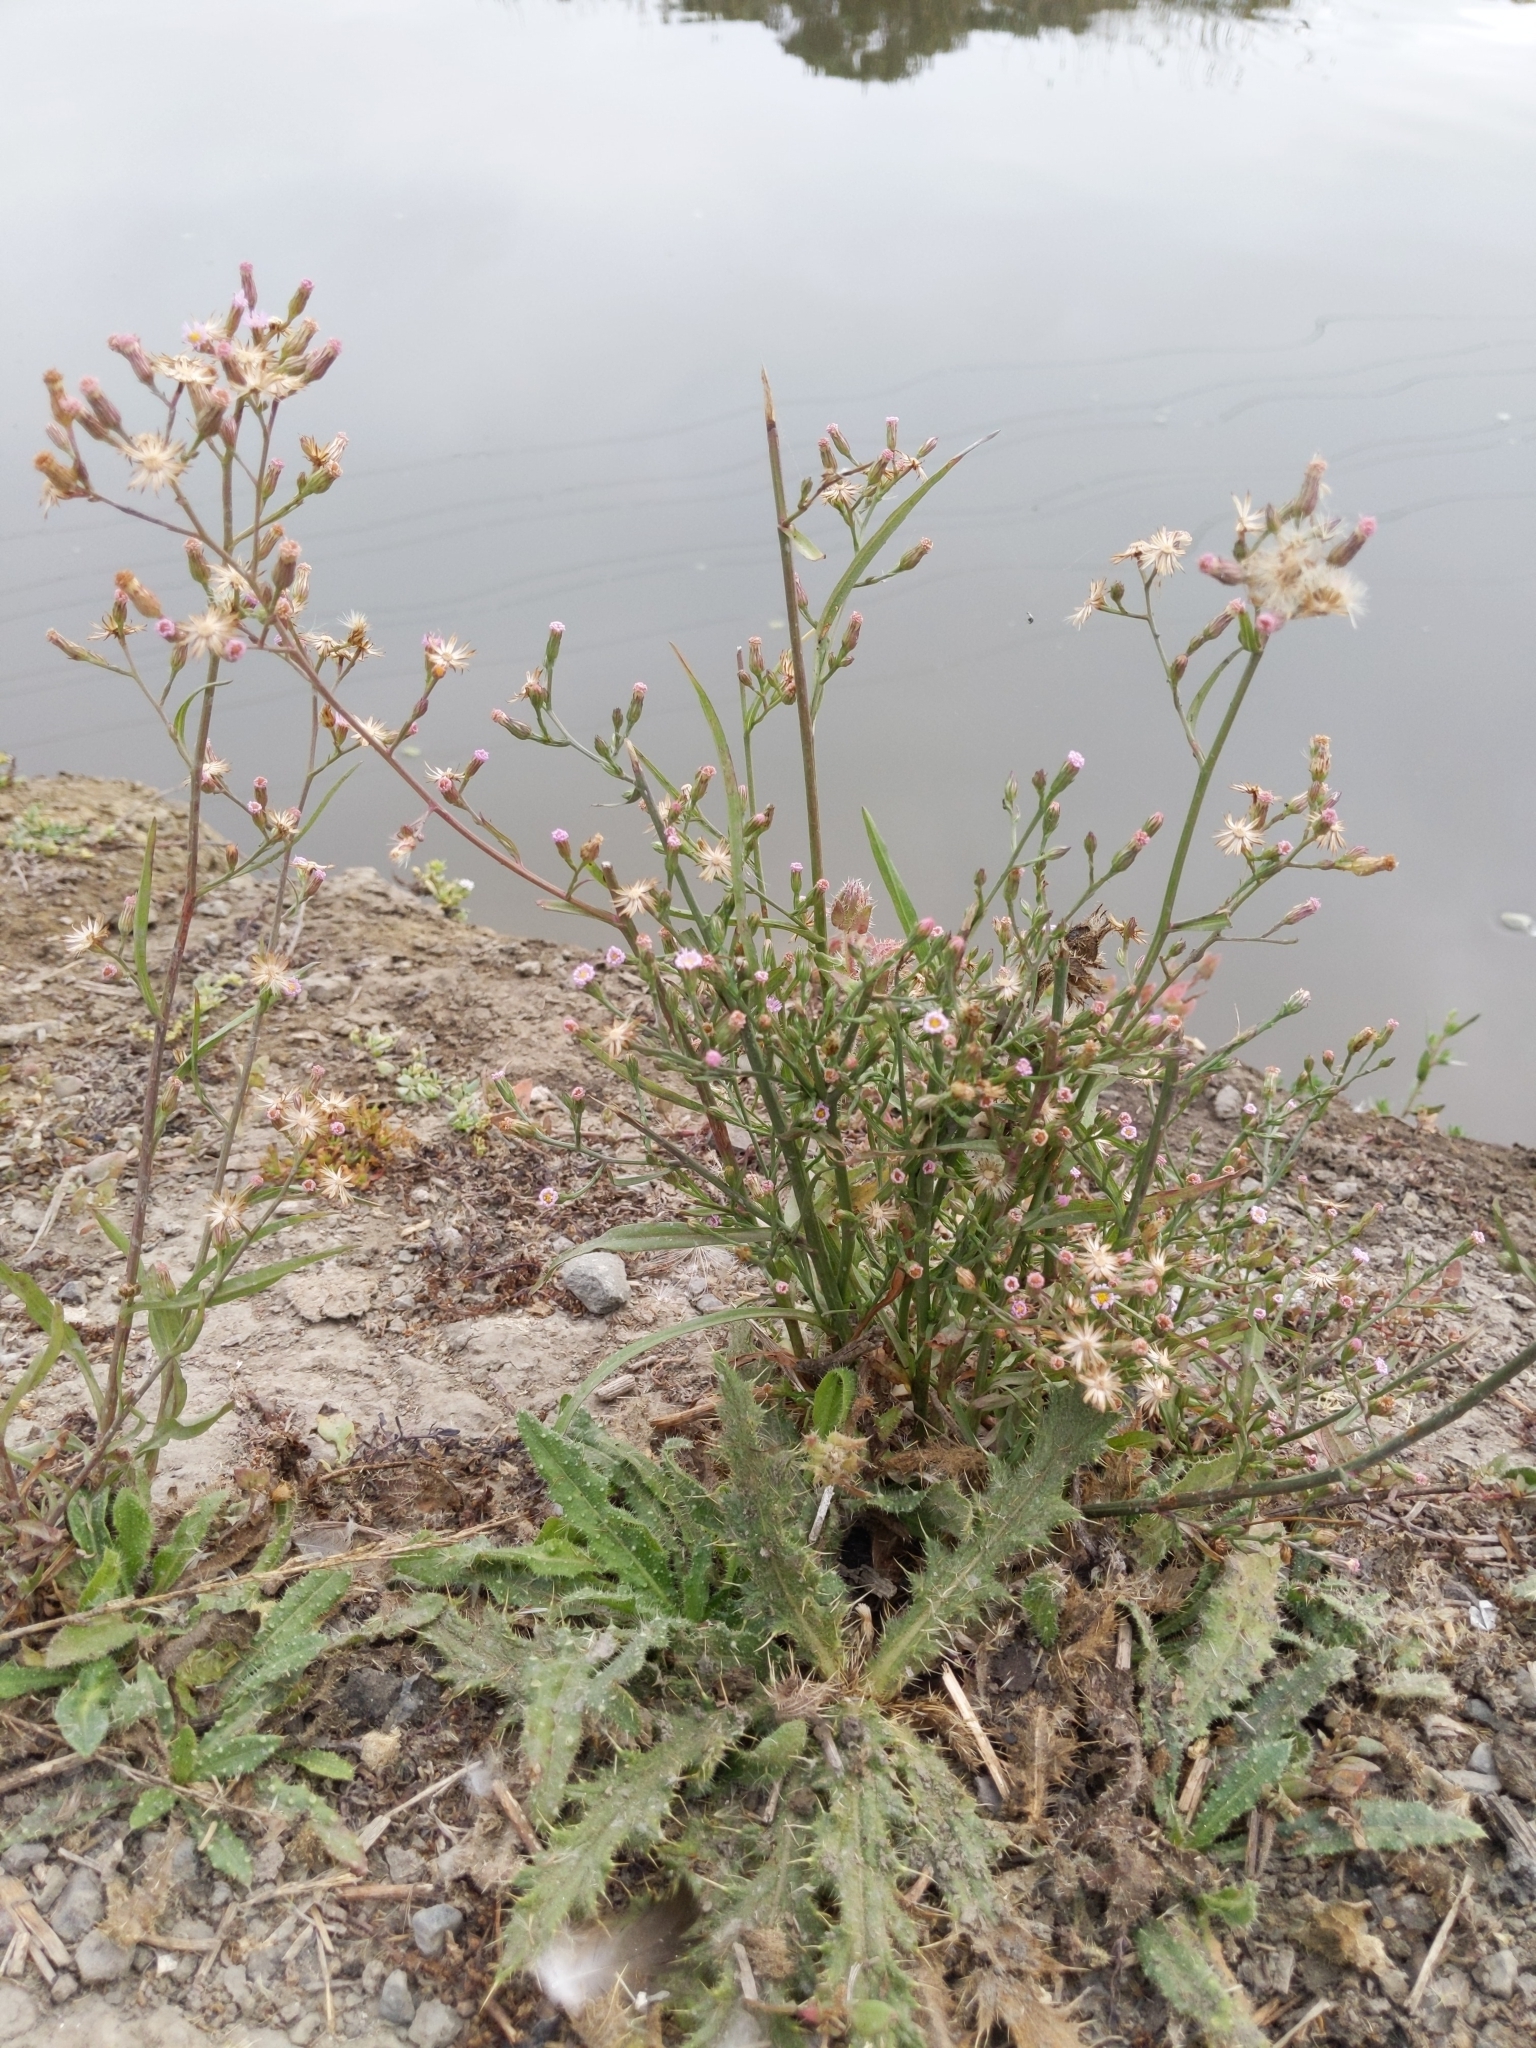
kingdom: Plantae
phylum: Tracheophyta
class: Magnoliopsida
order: Asterales
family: Asteraceae
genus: Symphyotrichum
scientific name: Symphyotrichum subulatum
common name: Annual saltmarsh aster
